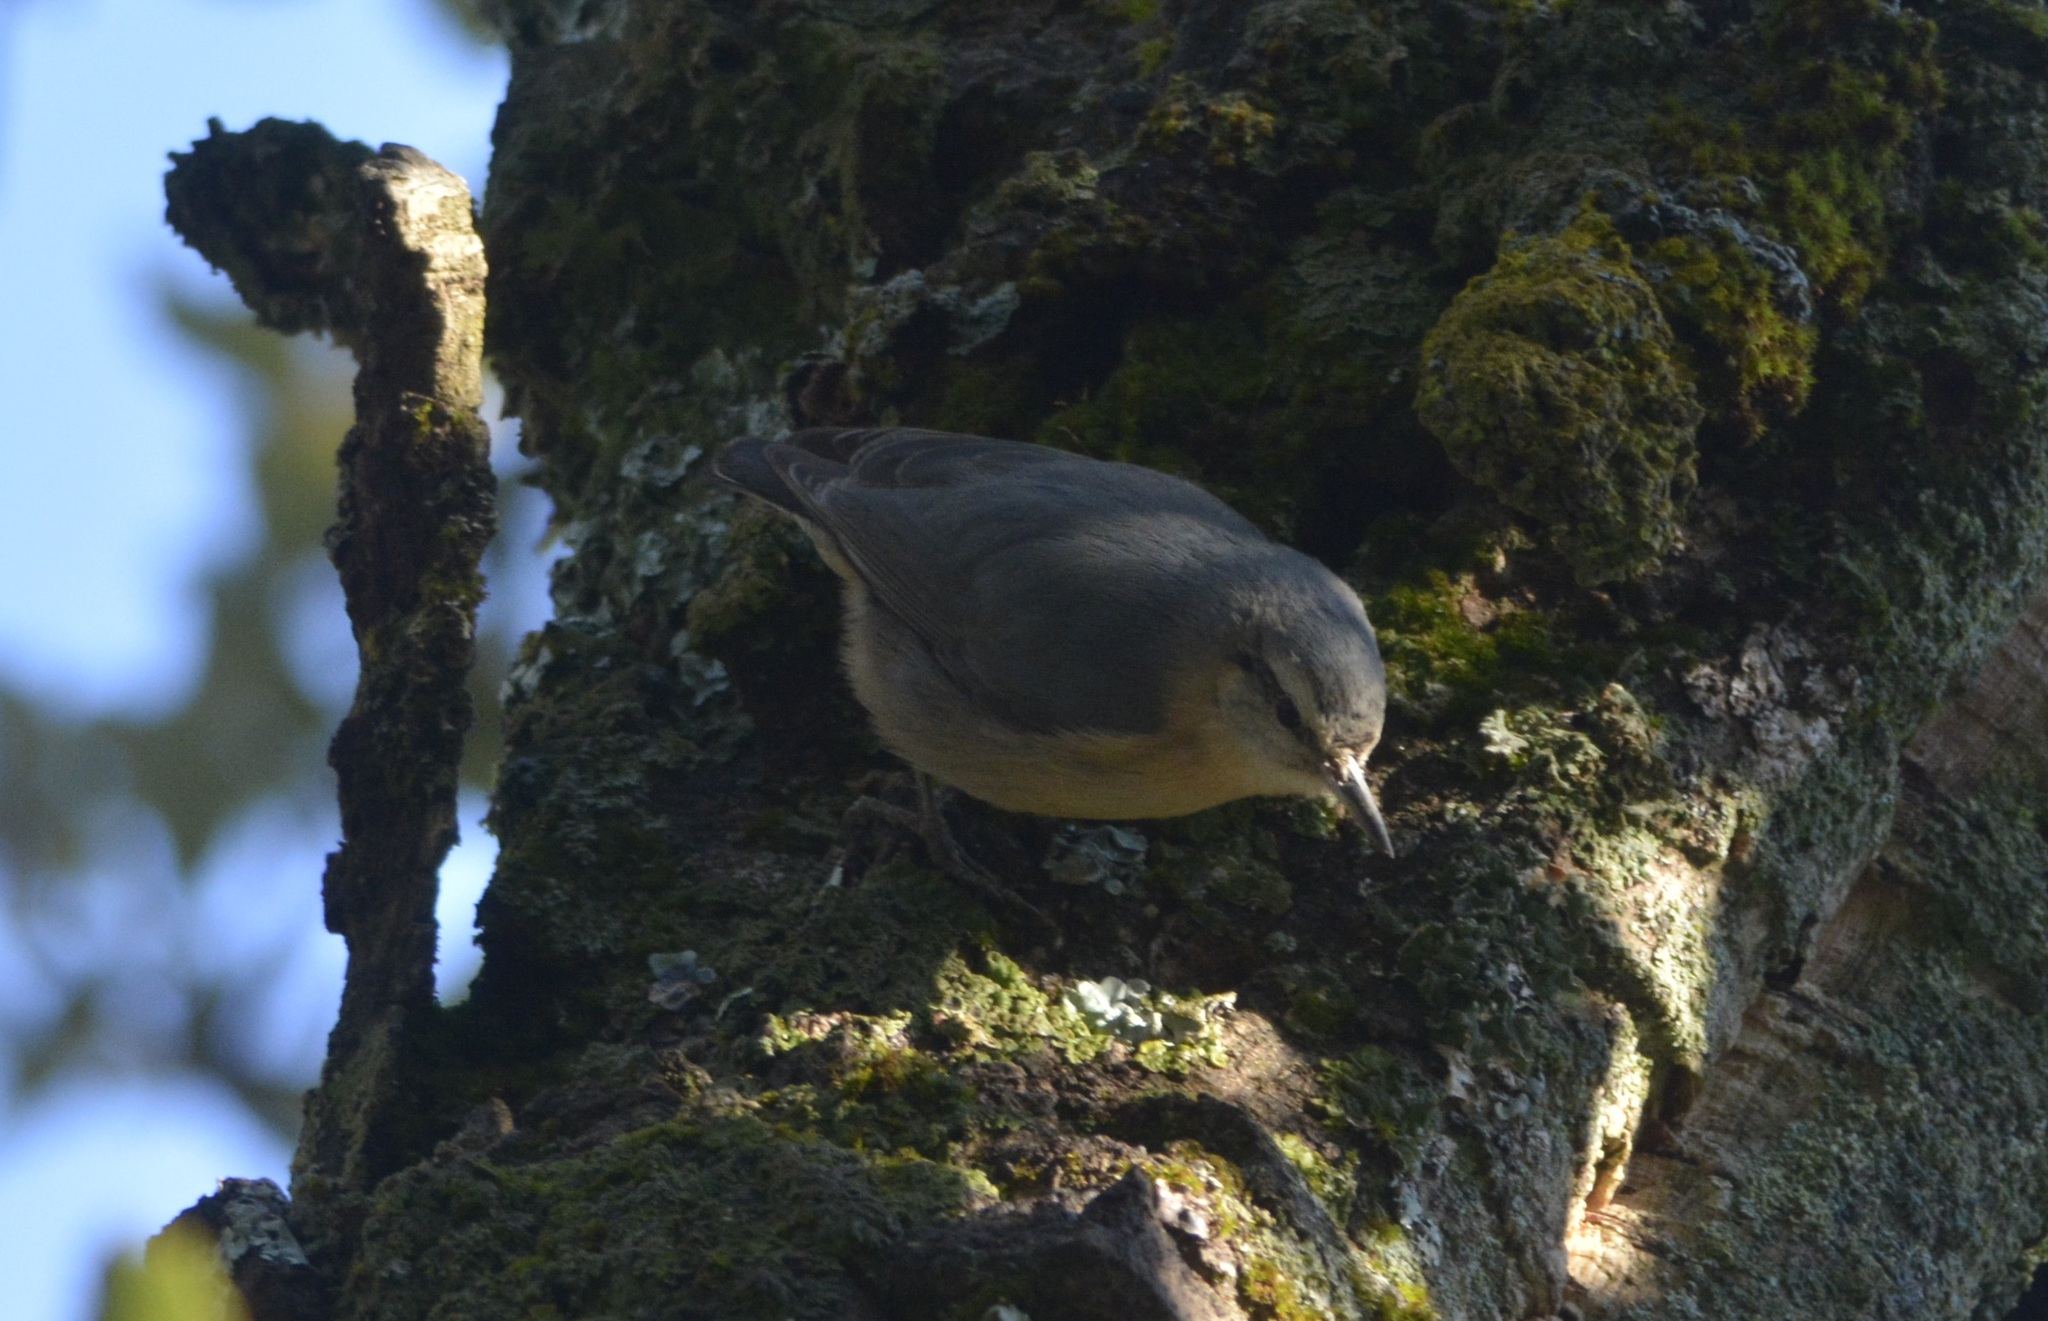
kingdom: Animalia
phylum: Chordata
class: Aves
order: Passeriformes
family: Sittidae
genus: Sitta
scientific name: Sitta ledanti
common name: Algerian nuthatch
